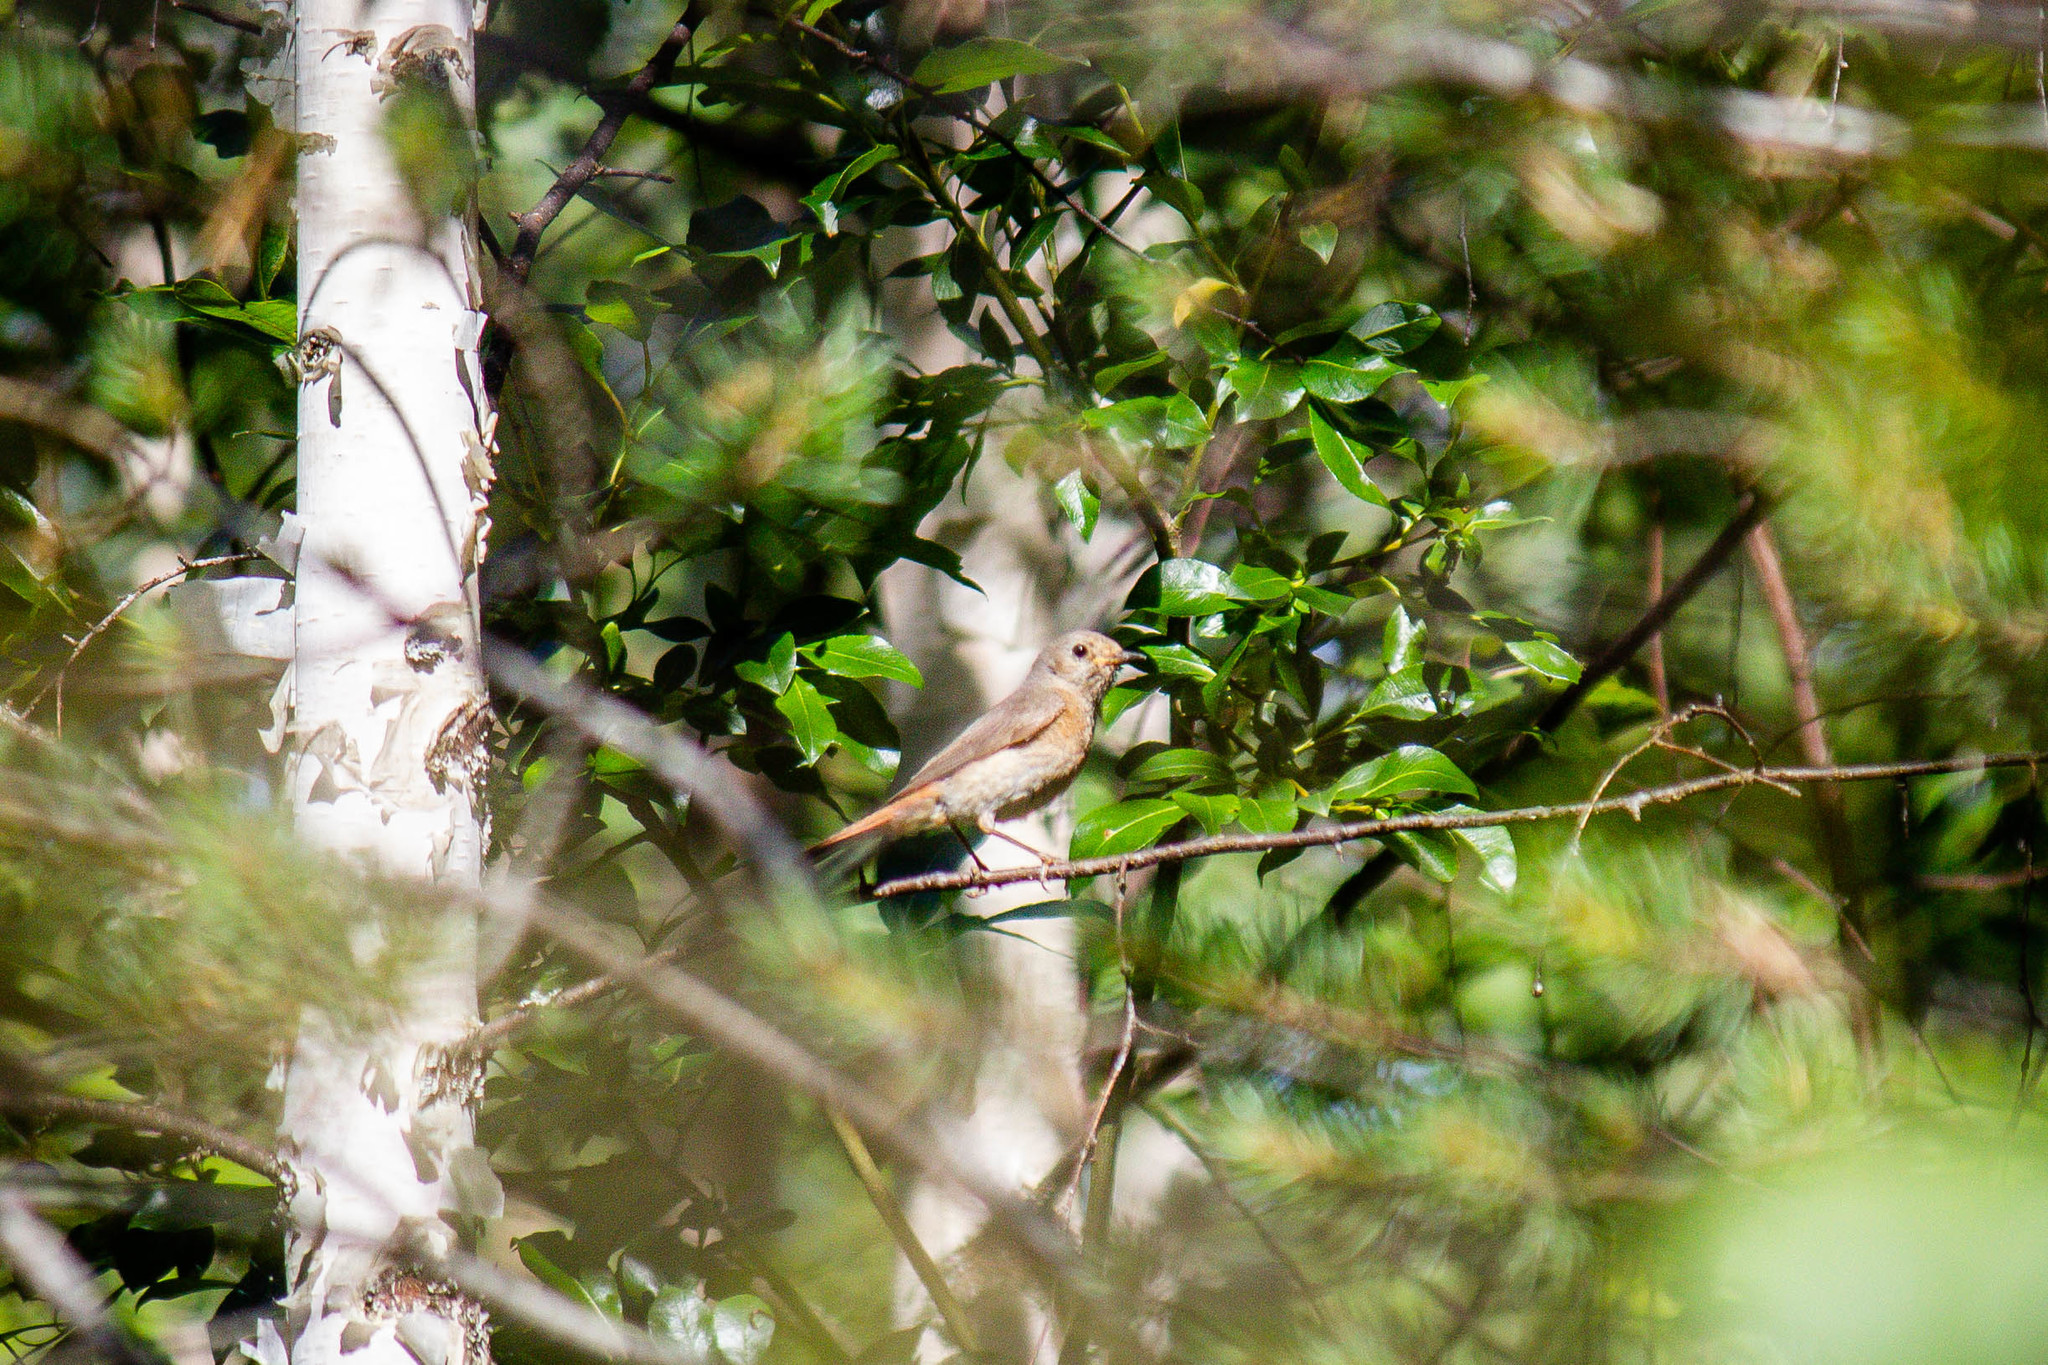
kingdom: Animalia
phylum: Chordata
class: Aves
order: Passeriformes
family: Muscicapidae
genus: Phoenicurus
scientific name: Phoenicurus phoenicurus
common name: Common redstart
